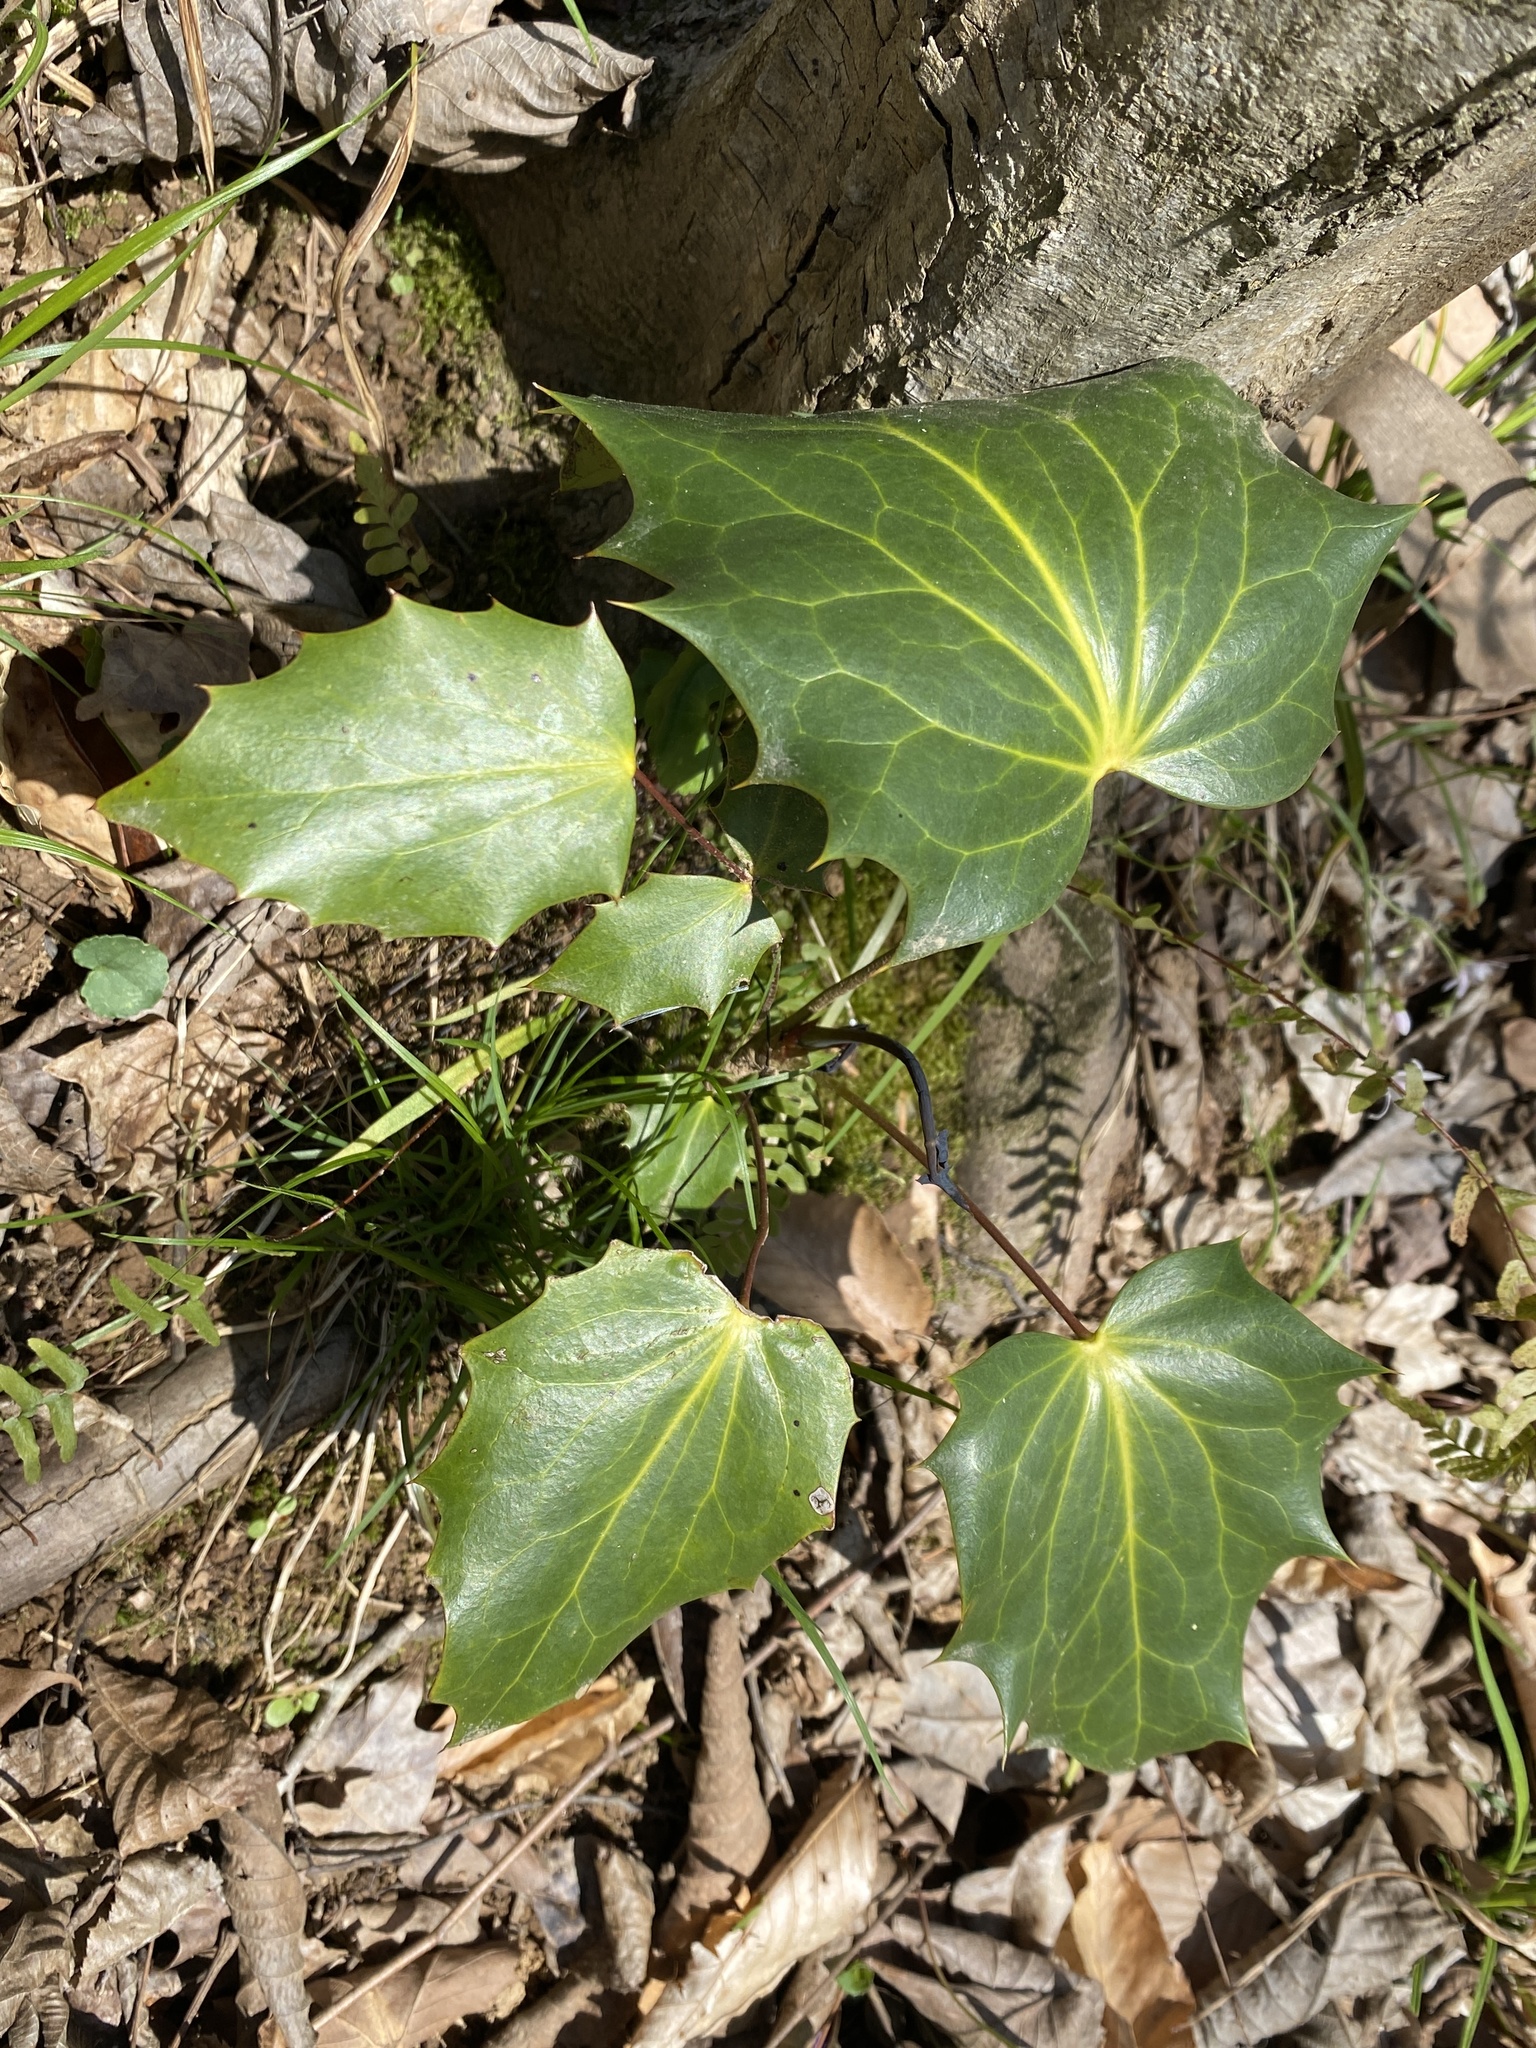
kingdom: Plantae
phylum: Tracheophyta
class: Magnoliopsida
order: Ranunculales
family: Berberidaceae
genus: Mahonia
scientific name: Mahonia bealei
